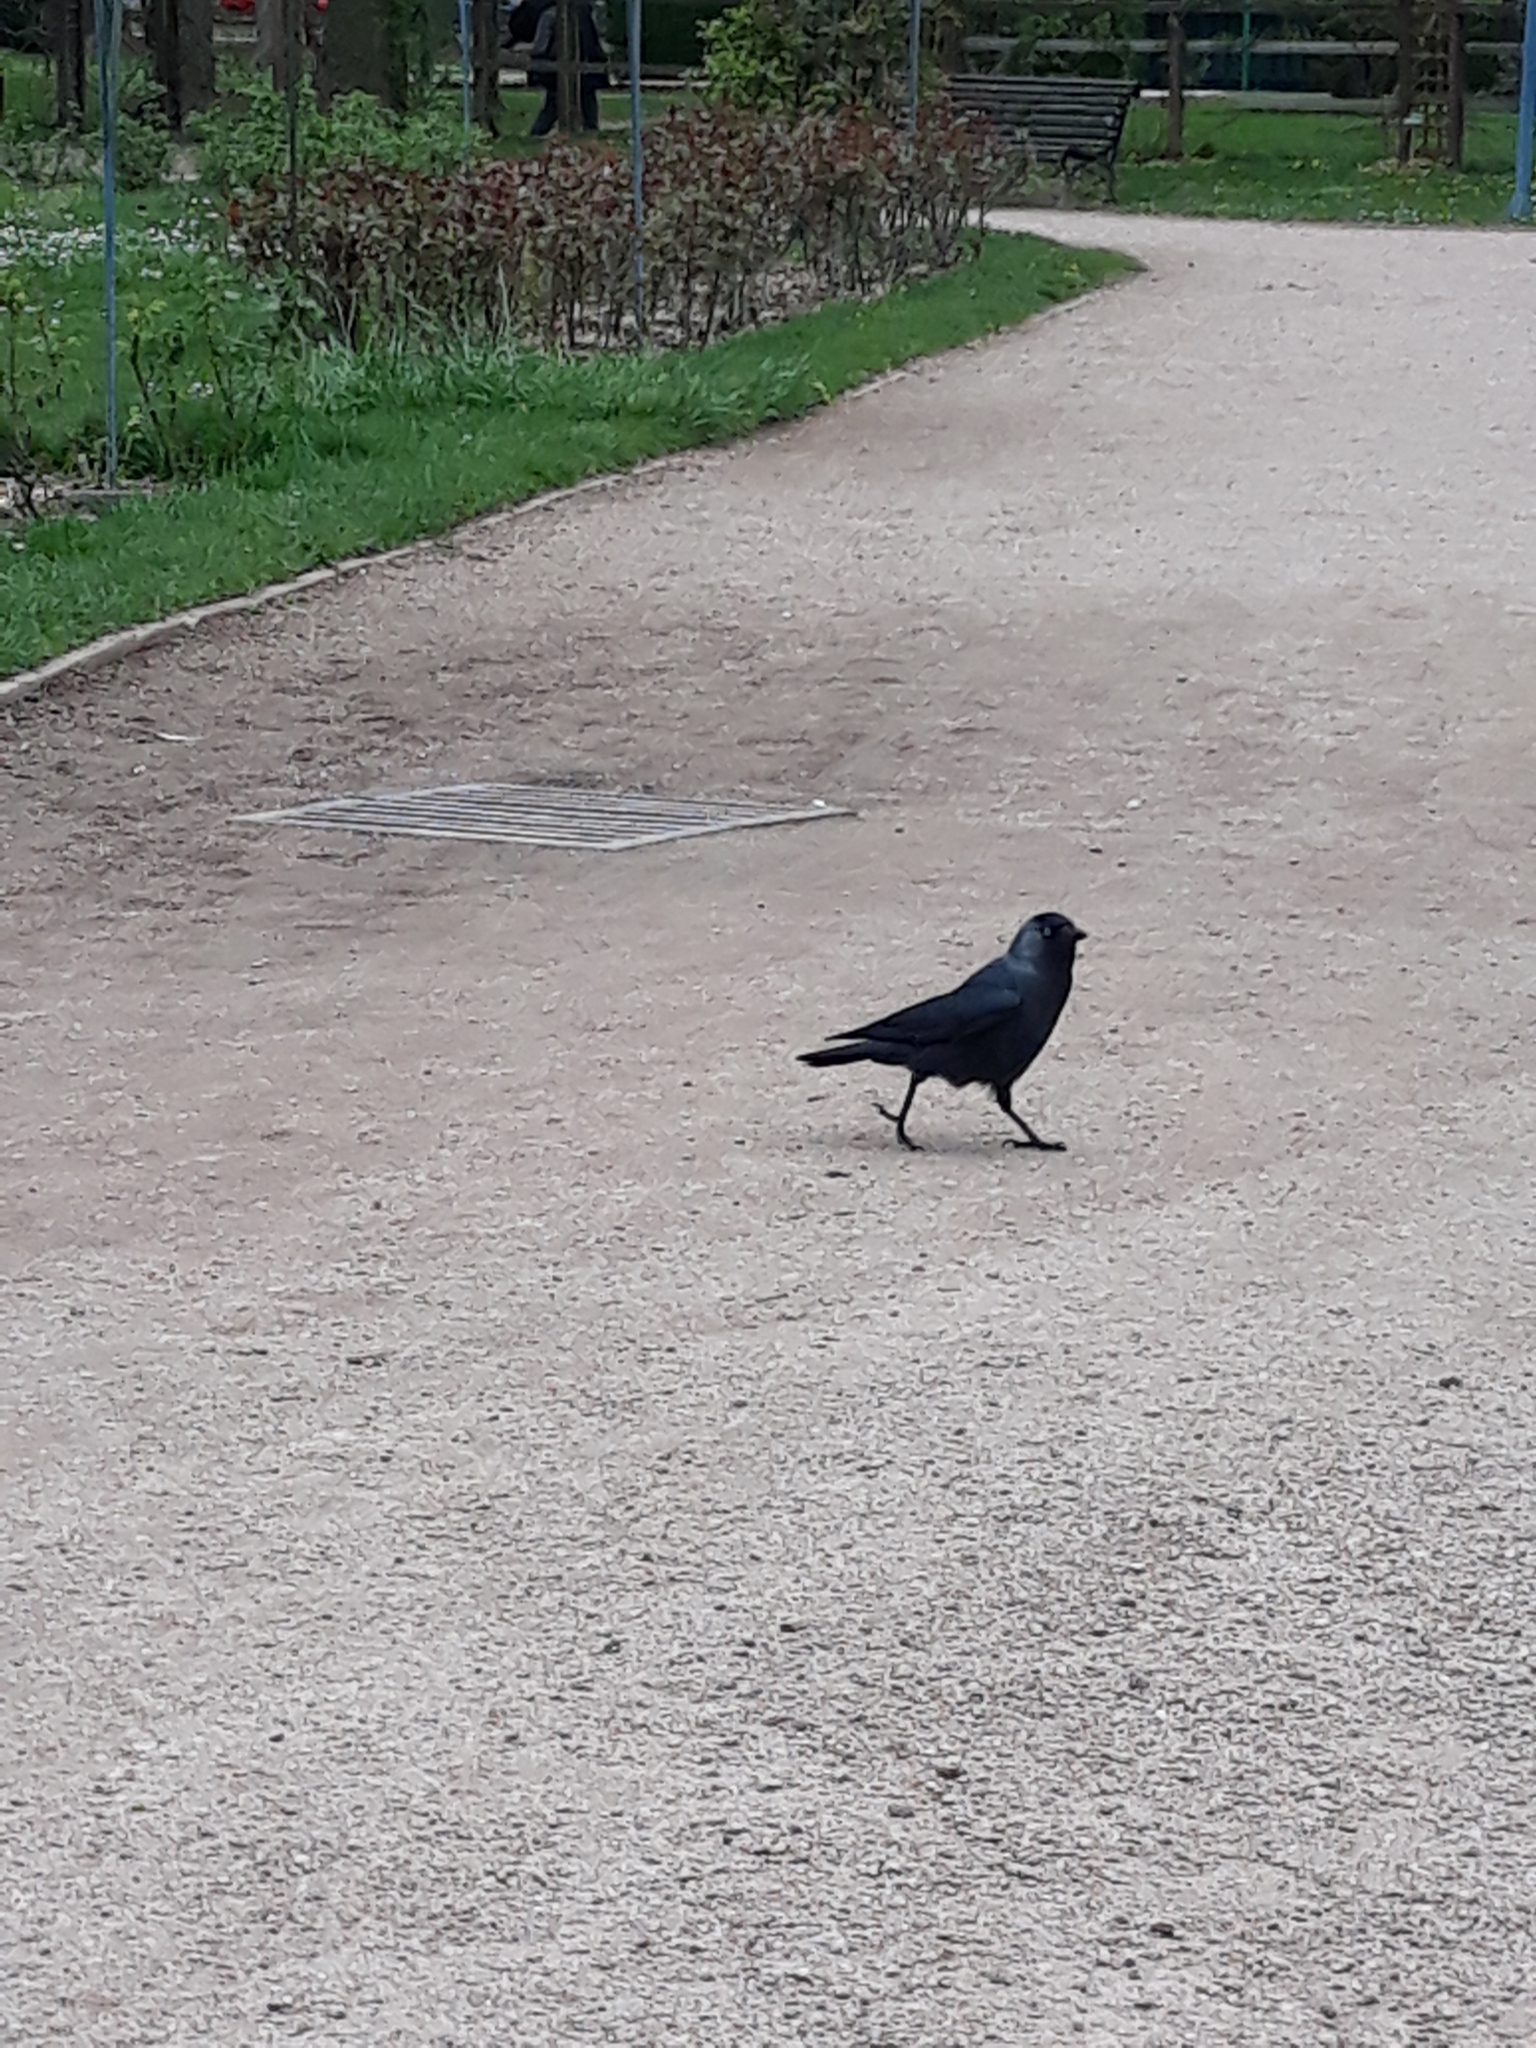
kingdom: Animalia
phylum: Chordata
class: Aves
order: Passeriformes
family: Corvidae
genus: Coloeus
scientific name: Coloeus monedula
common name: Western jackdaw
